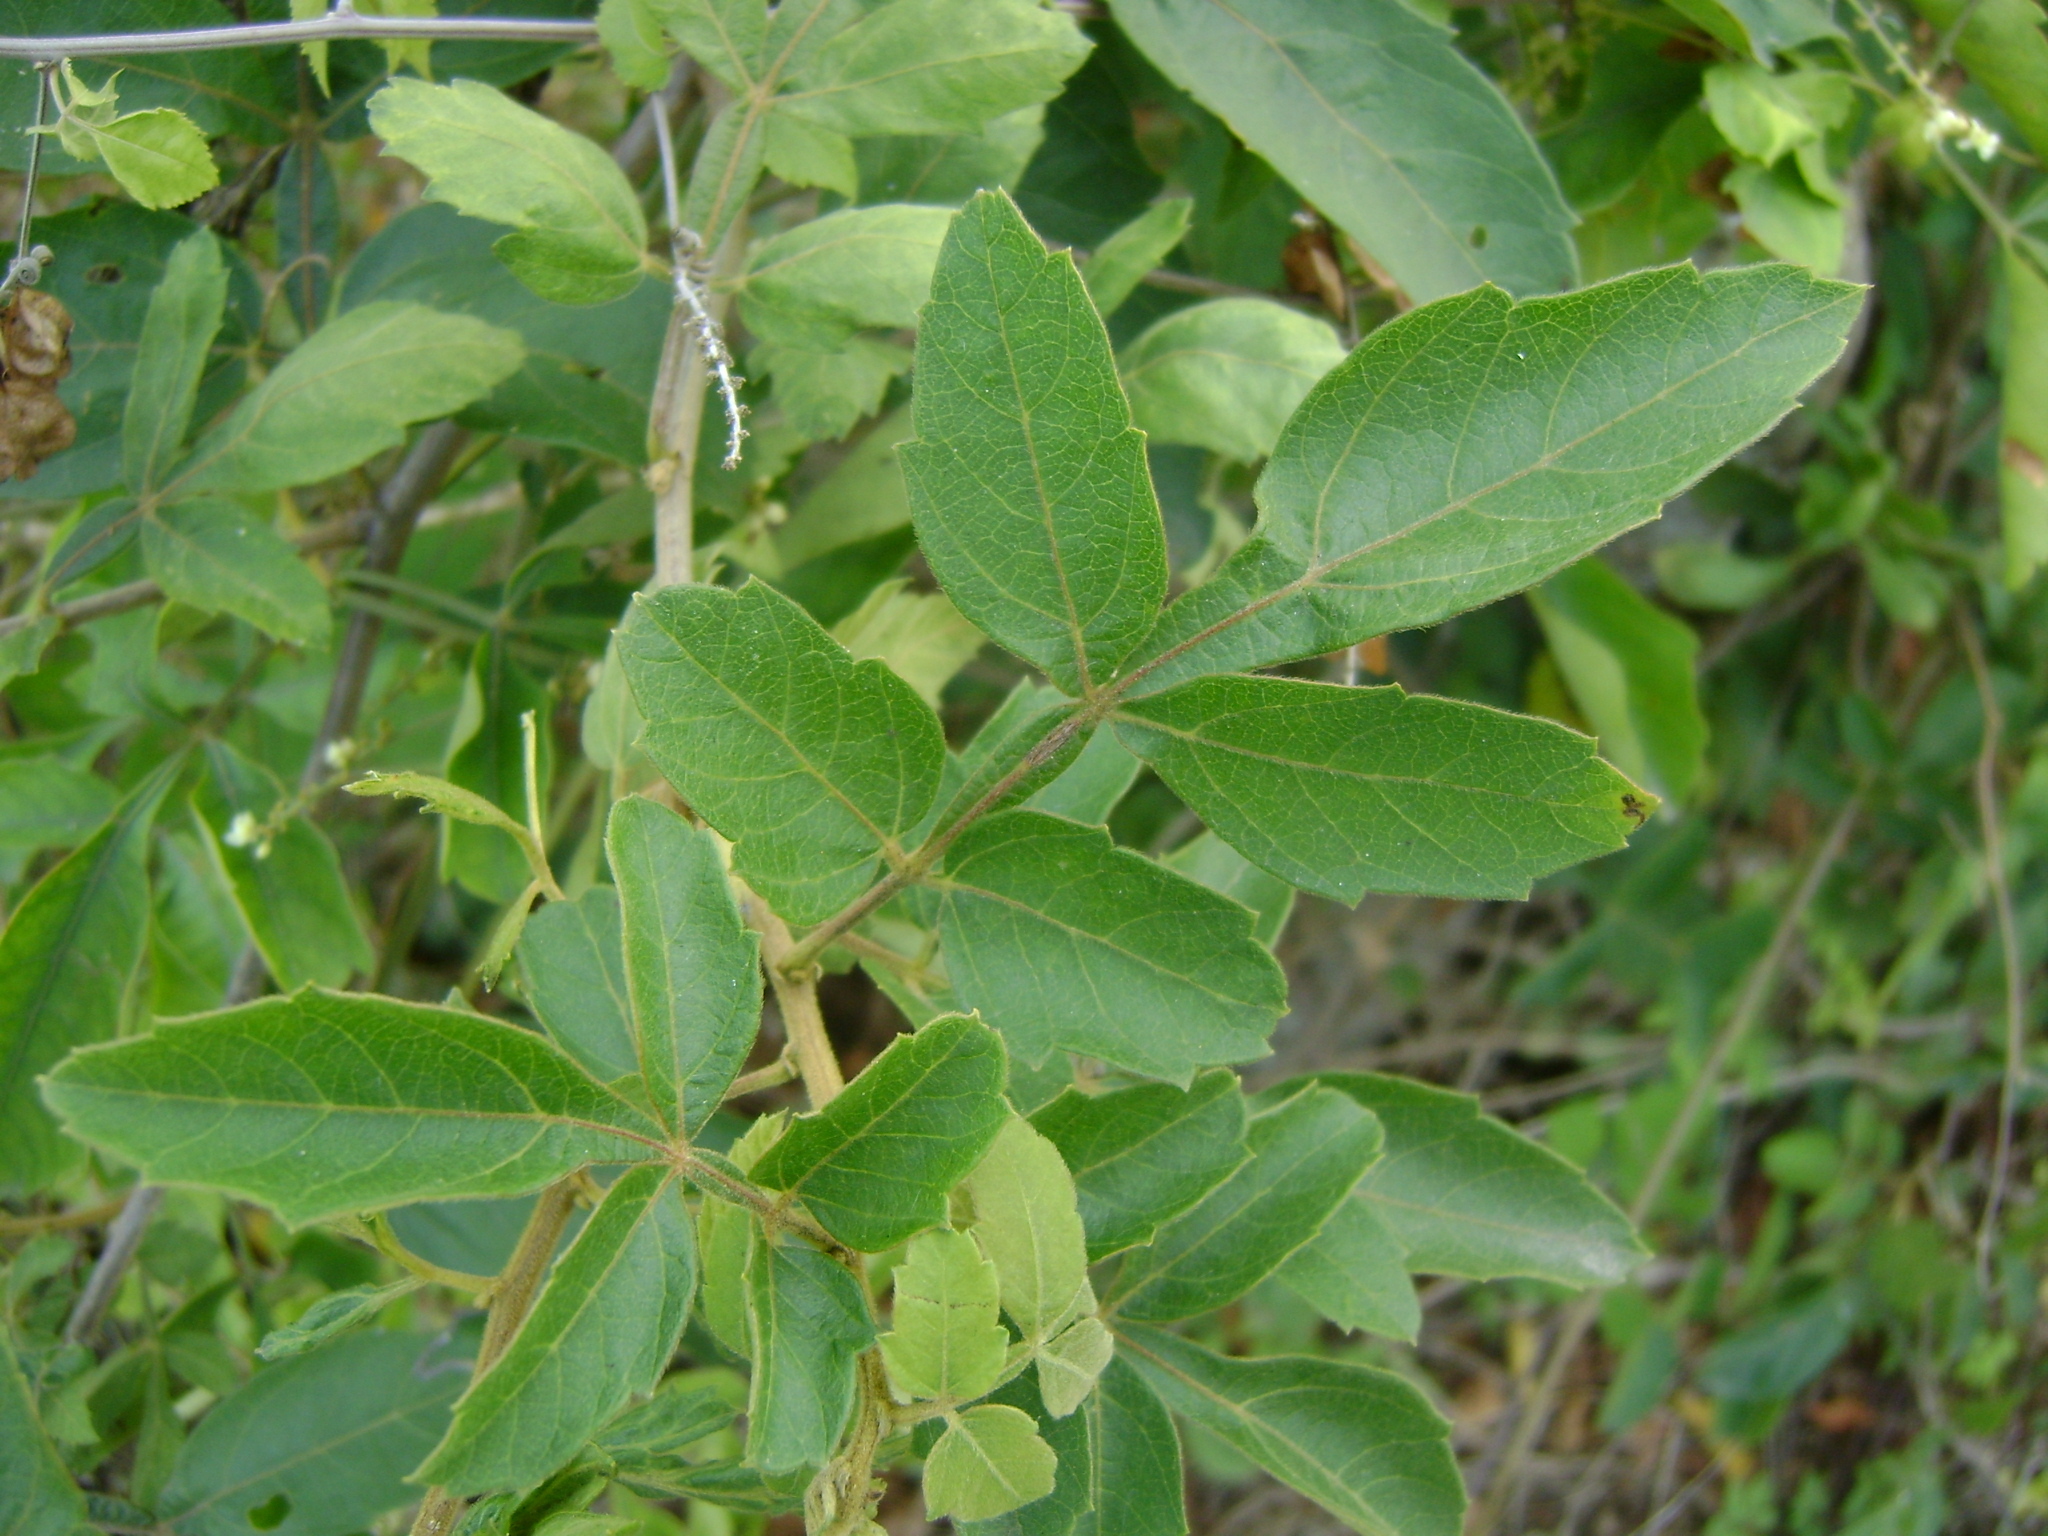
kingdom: Plantae
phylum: Tracheophyta
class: Magnoliopsida
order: Sapindales
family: Sapindaceae
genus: Paullinia
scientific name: Paullinia costata
